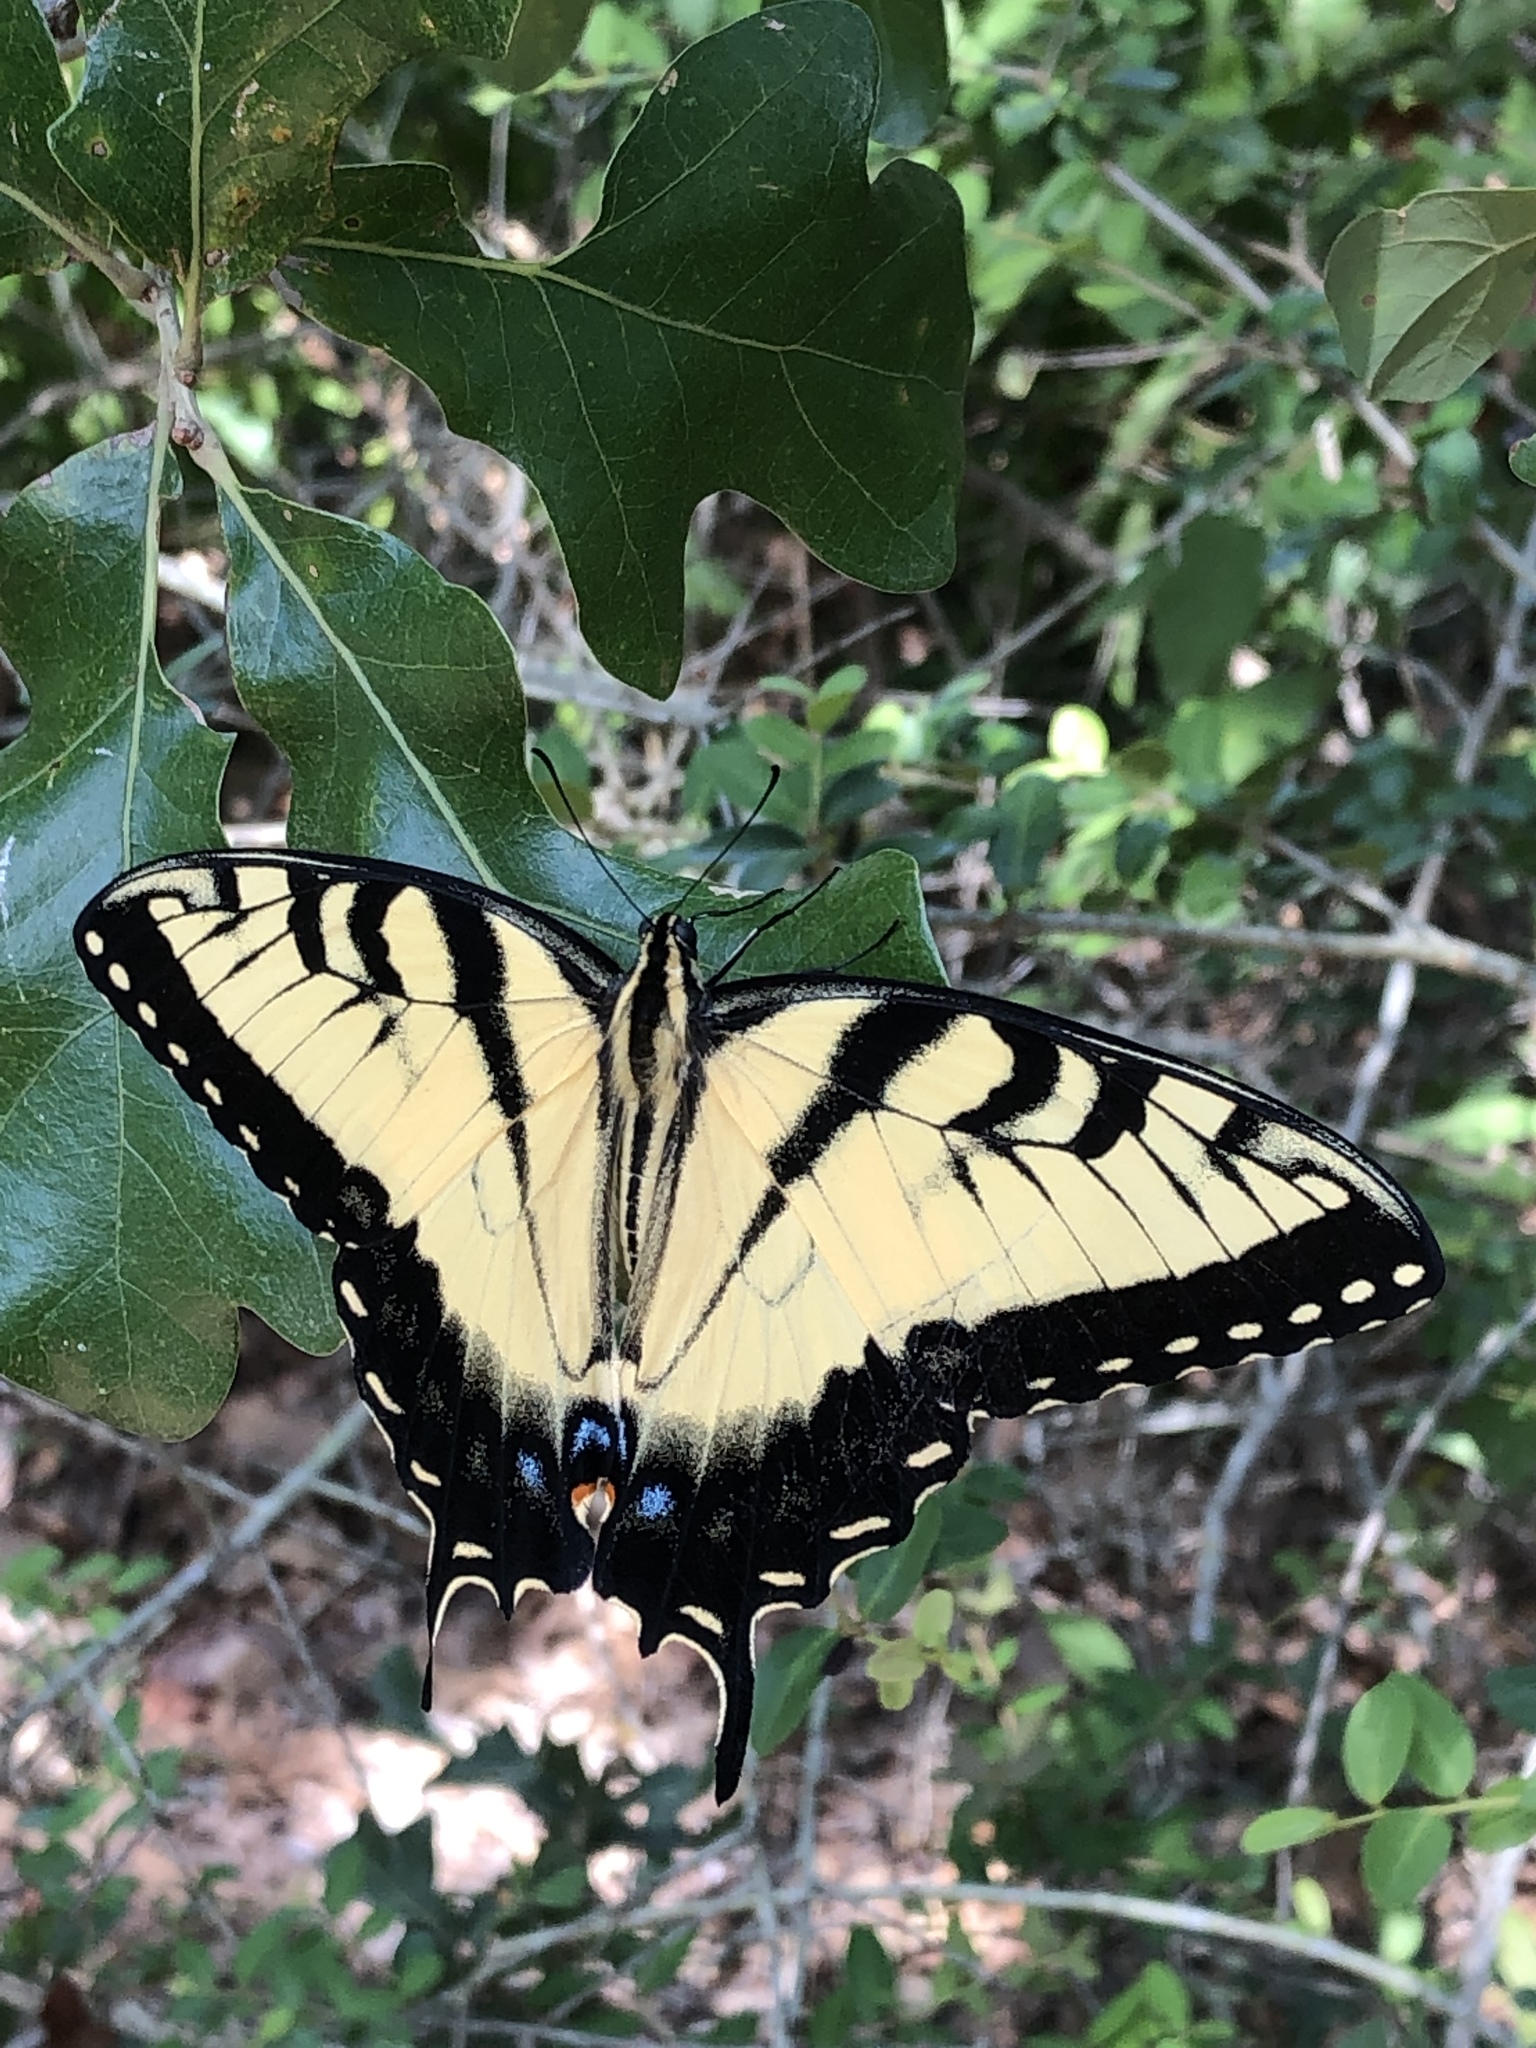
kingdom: Animalia
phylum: Arthropoda
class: Insecta
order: Lepidoptera
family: Papilionidae
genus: Papilio
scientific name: Papilio glaucus
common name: Tiger swallowtail
